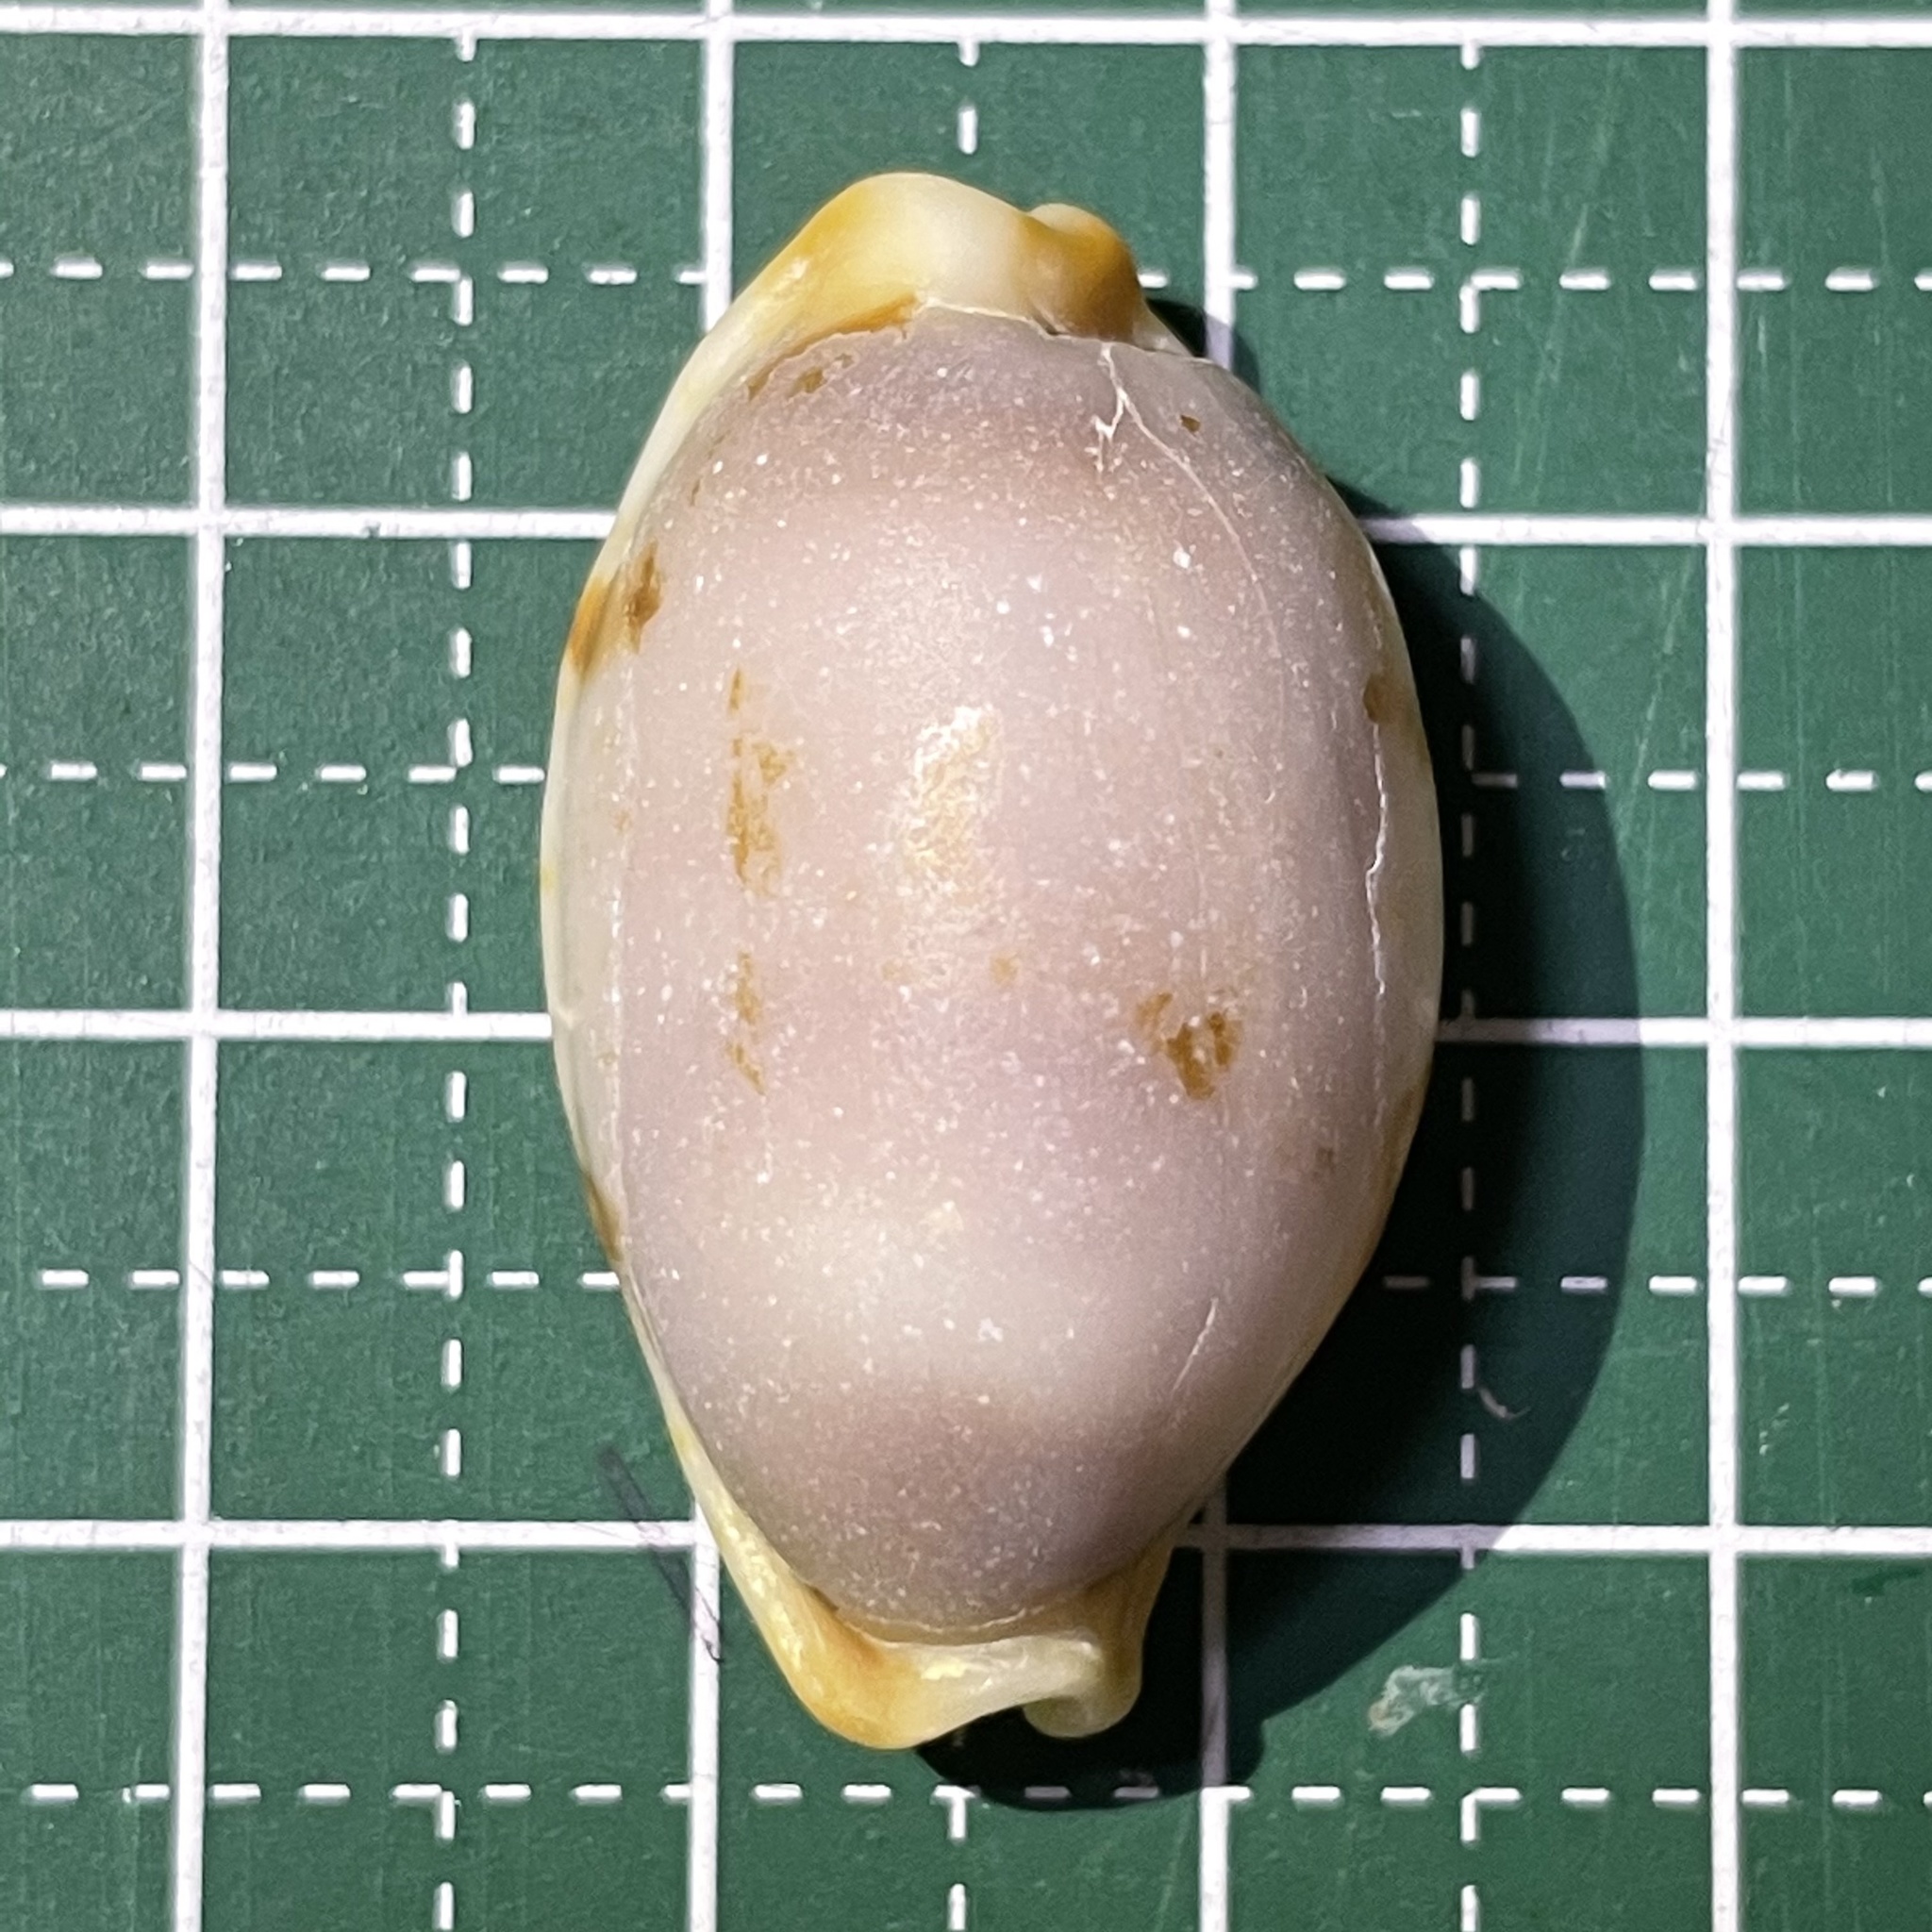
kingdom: Animalia
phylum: Mollusca
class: Gastropoda
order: Littorinimorpha
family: Cypraeidae
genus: Bistolida
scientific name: Bistolida stolida
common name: Stolid cowrie
